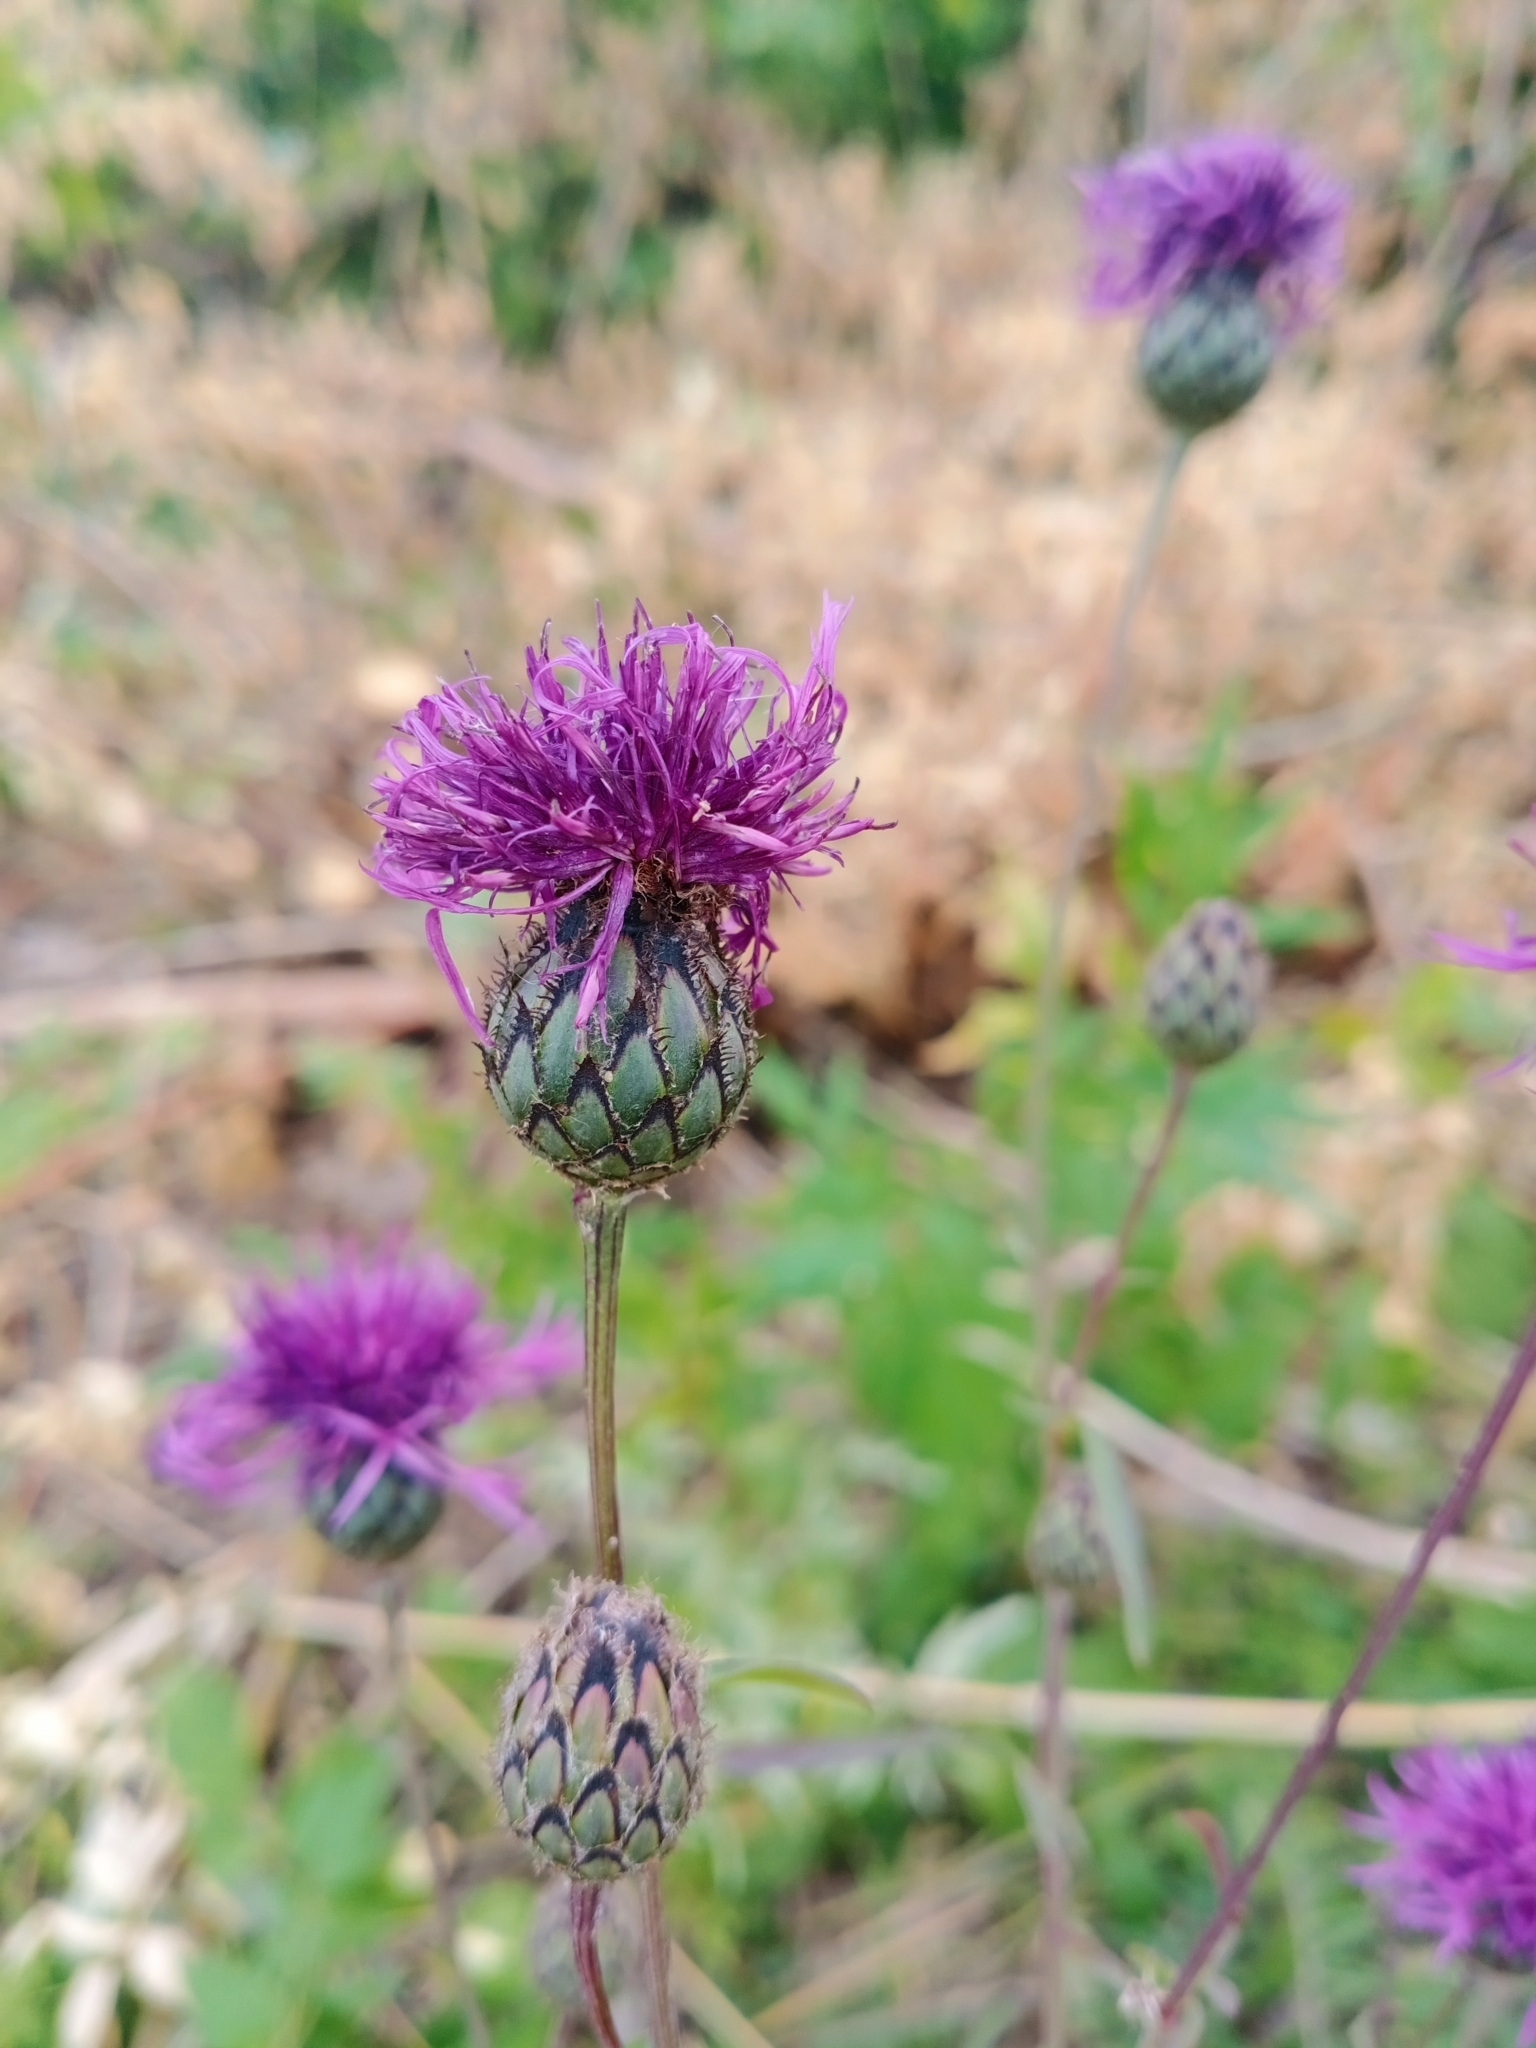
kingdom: Plantae
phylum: Tracheophyta
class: Magnoliopsida
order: Asterales
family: Asteraceae
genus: Centaurea
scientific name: Centaurea scabiosa
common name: Greater knapweed
